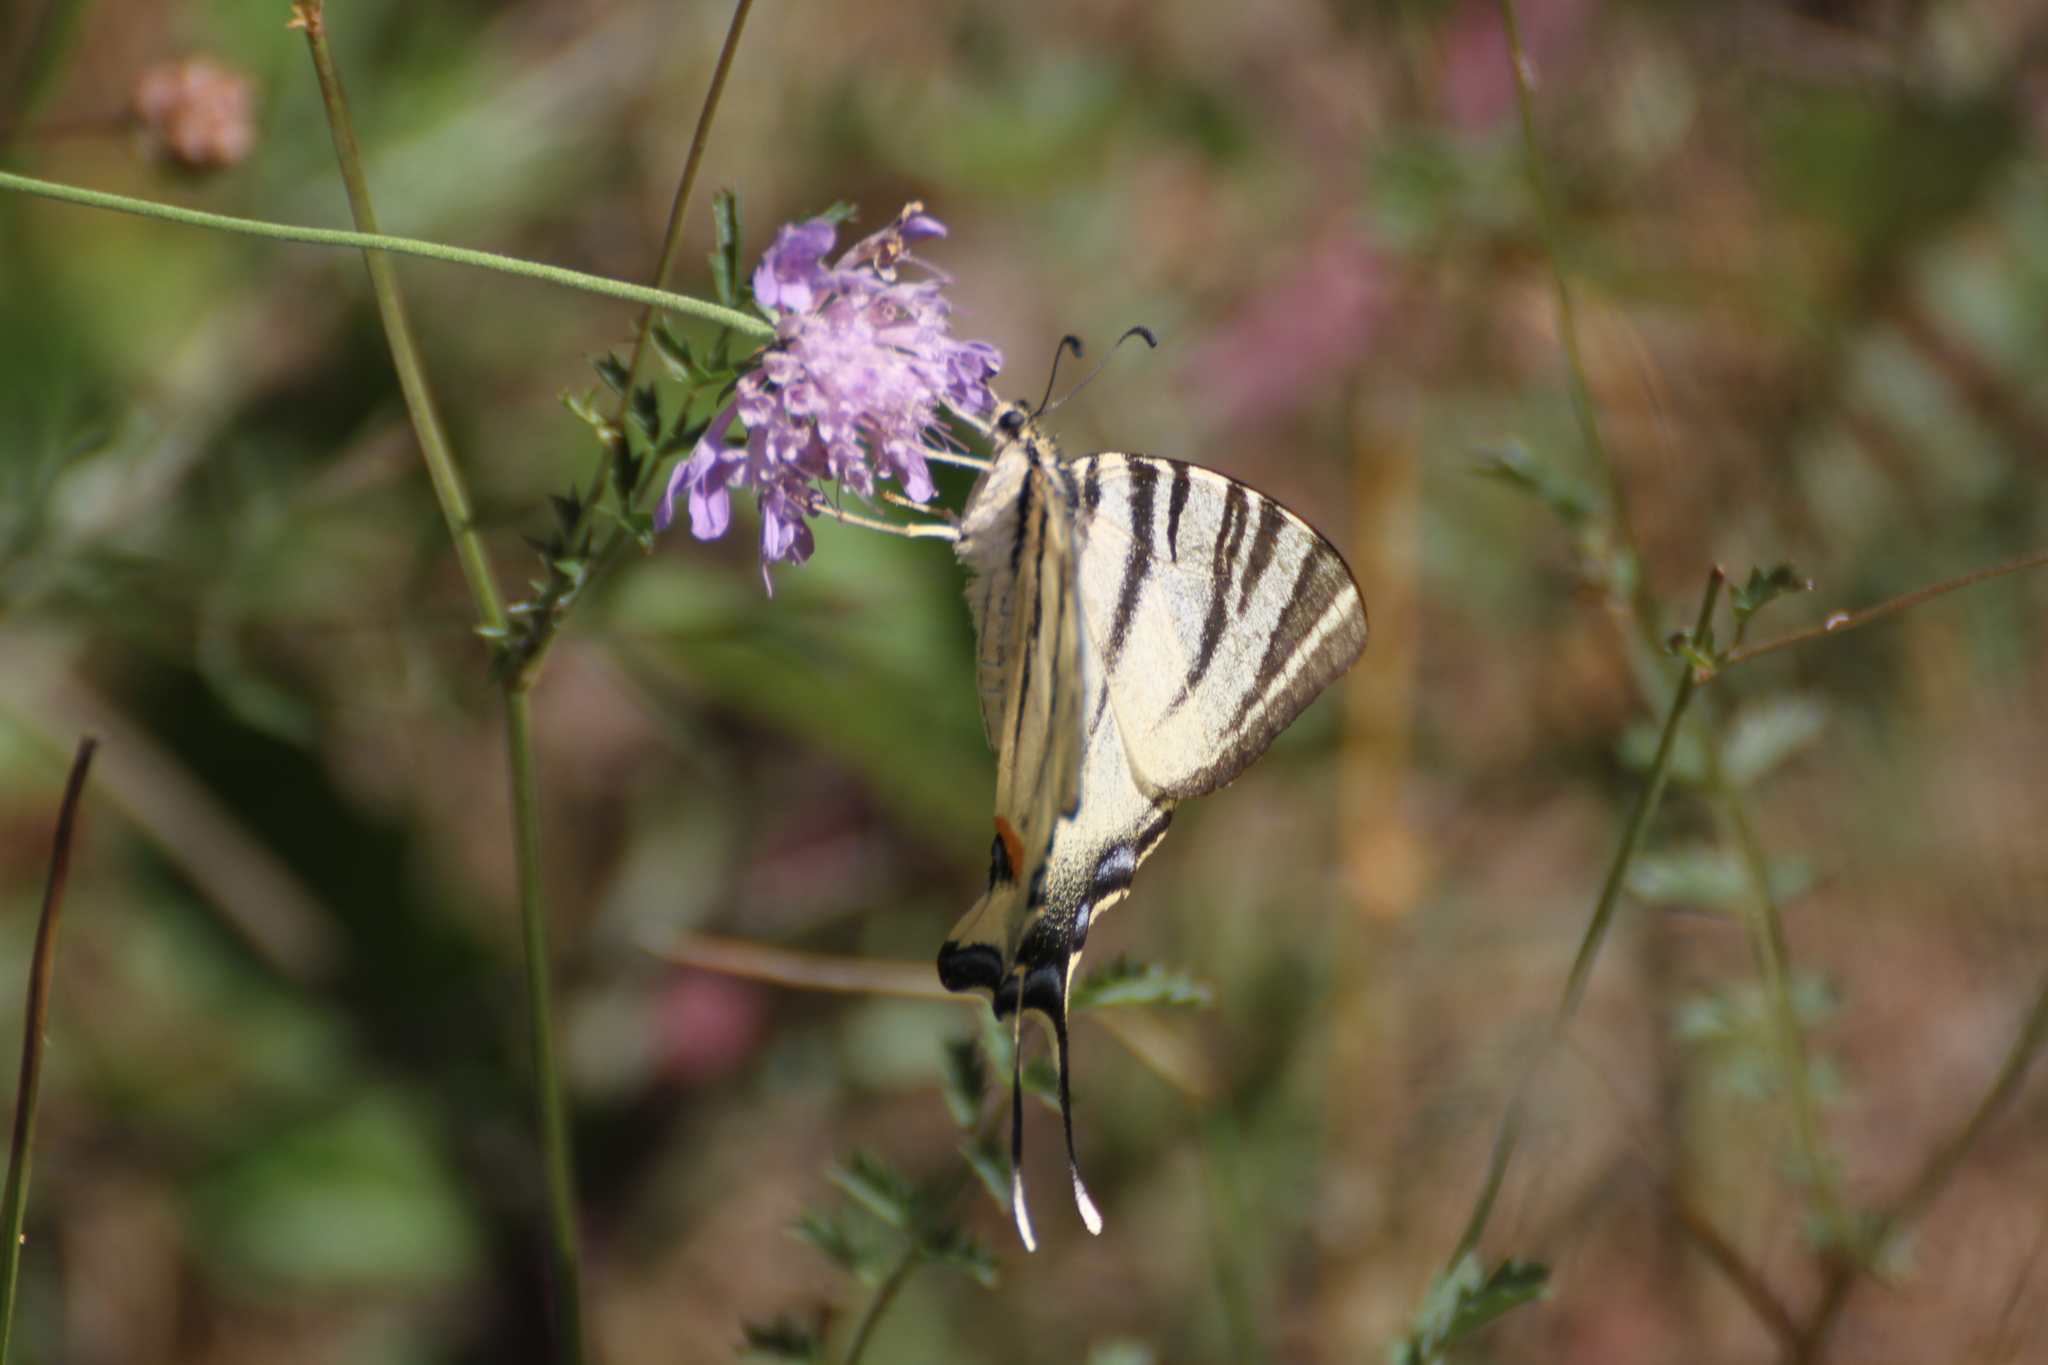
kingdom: Animalia
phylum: Arthropoda
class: Insecta
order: Lepidoptera
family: Papilionidae
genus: Iphiclides
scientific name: Iphiclides podalirius
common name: Scarce swallowtail
